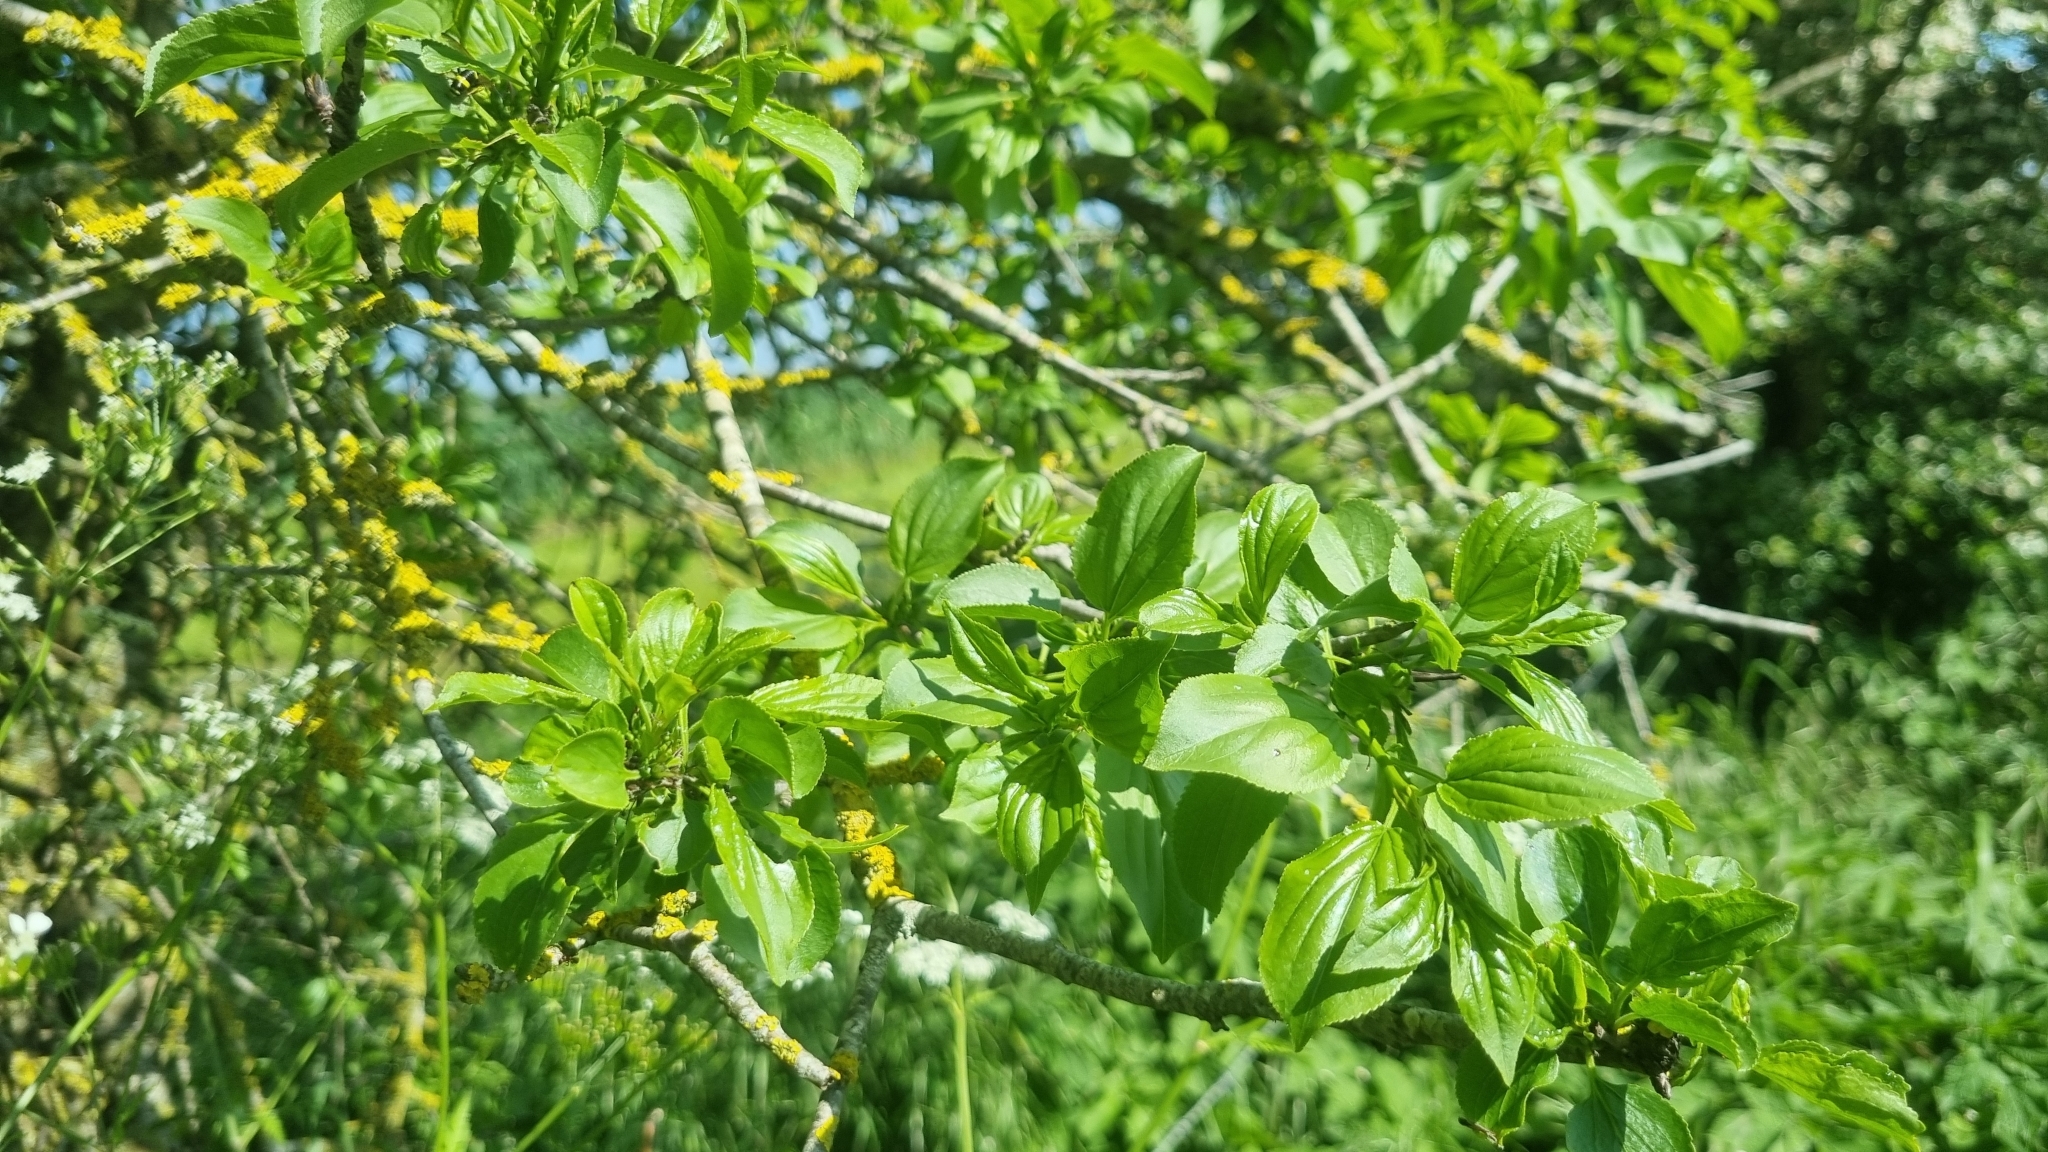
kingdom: Plantae
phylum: Tracheophyta
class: Magnoliopsida
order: Rosales
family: Rhamnaceae
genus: Rhamnus
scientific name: Rhamnus cathartica
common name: Common buckthorn
